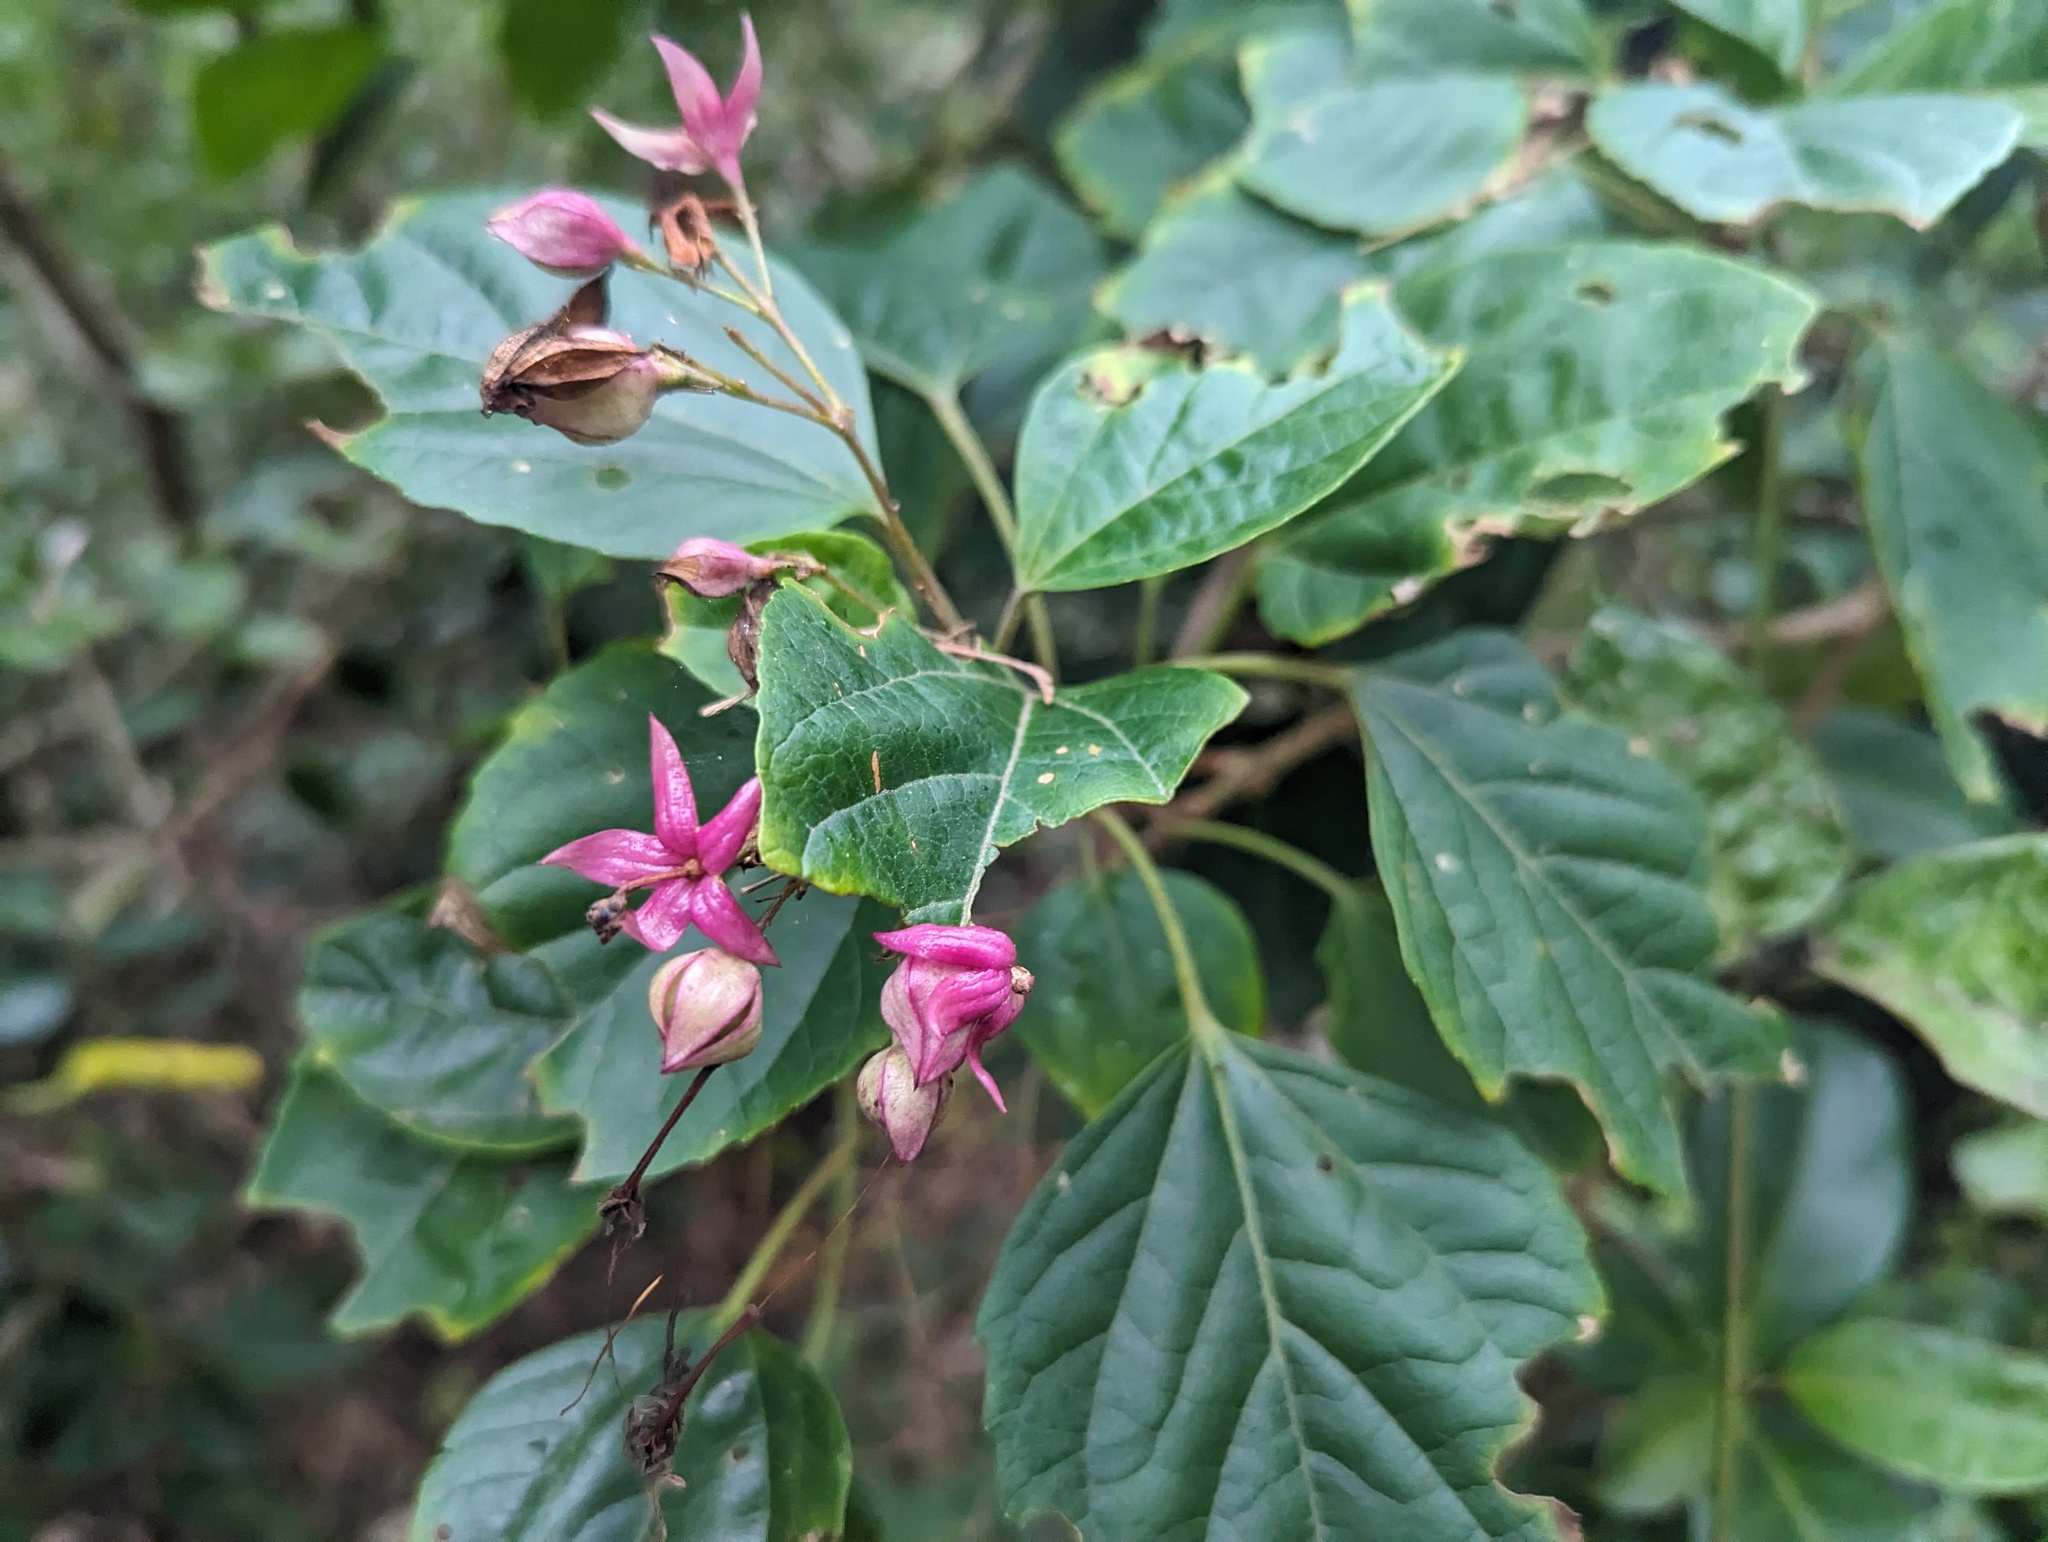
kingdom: Plantae
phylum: Tracheophyta
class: Magnoliopsida
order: Lamiales
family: Lamiaceae
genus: Clerodendrum
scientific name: Clerodendrum trichotomum
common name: Harlequin glorybower
